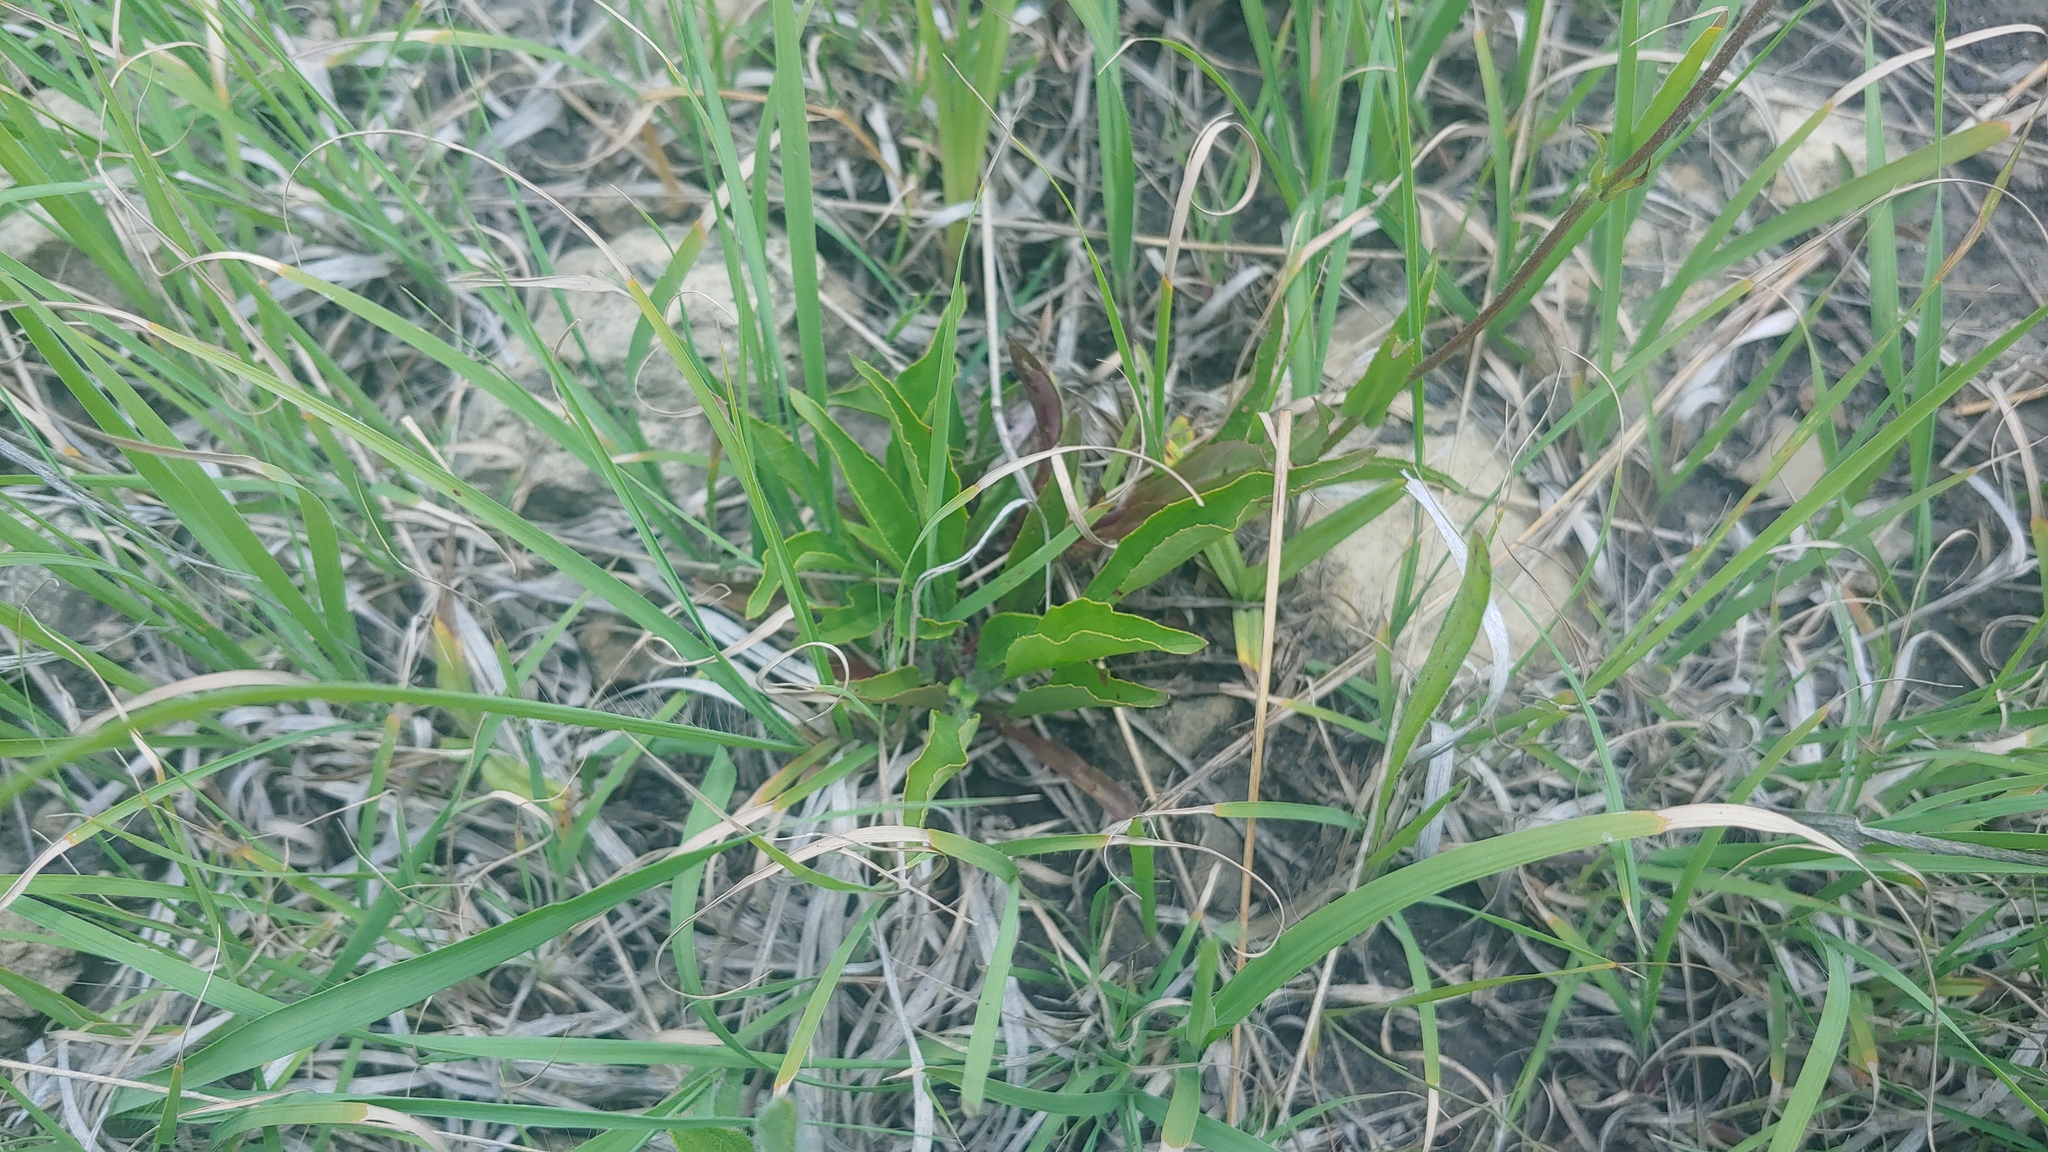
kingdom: Plantae
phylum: Tracheophyta
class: Magnoliopsida
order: Lamiales
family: Plantaginaceae
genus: Penstemon
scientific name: Penstemon hirsutus
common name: Hairy beardtongue
